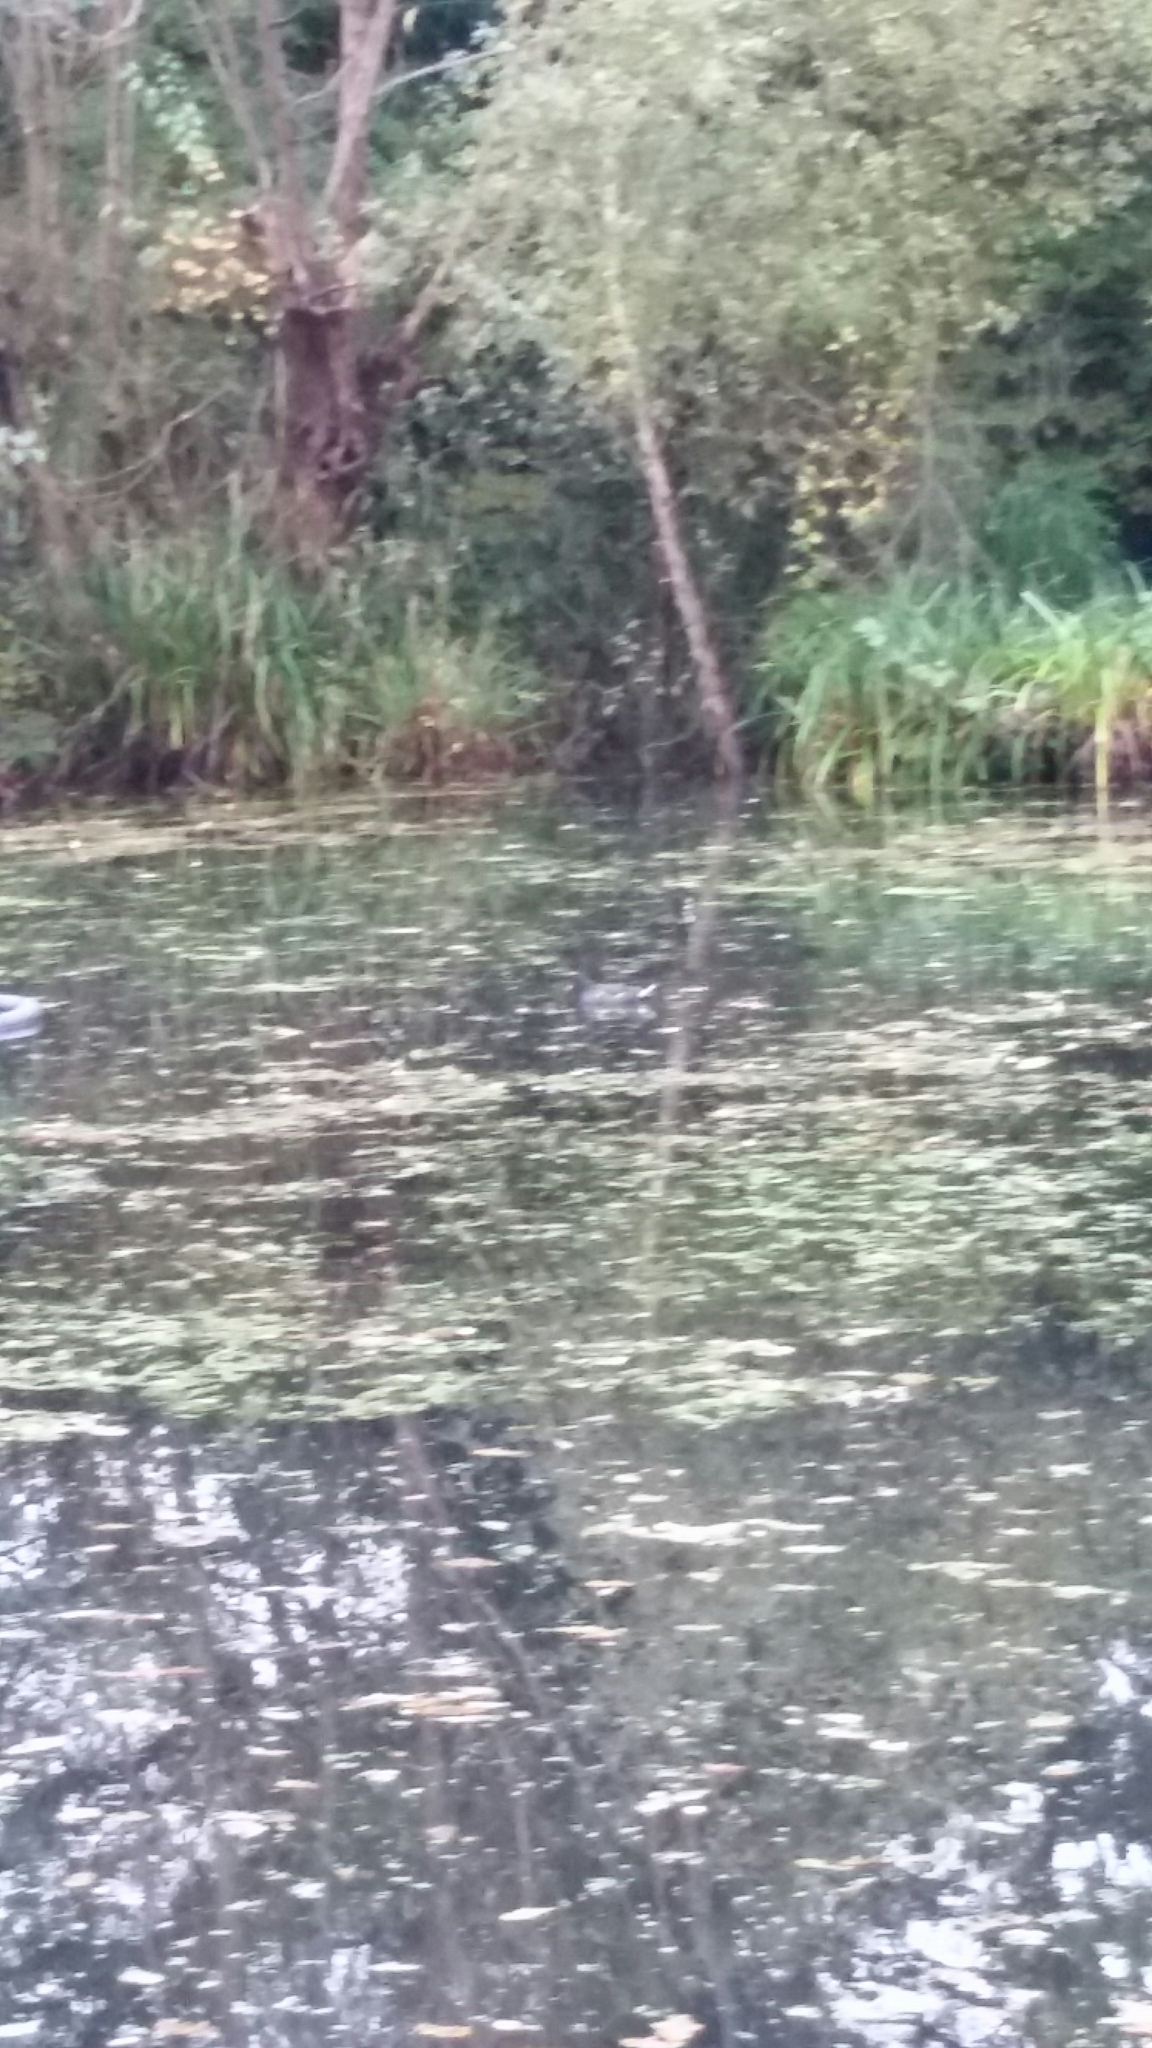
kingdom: Animalia
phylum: Chordata
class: Aves
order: Gruiformes
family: Rallidae
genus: Gallinula
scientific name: Gallinula chloropus
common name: Common moorhen
